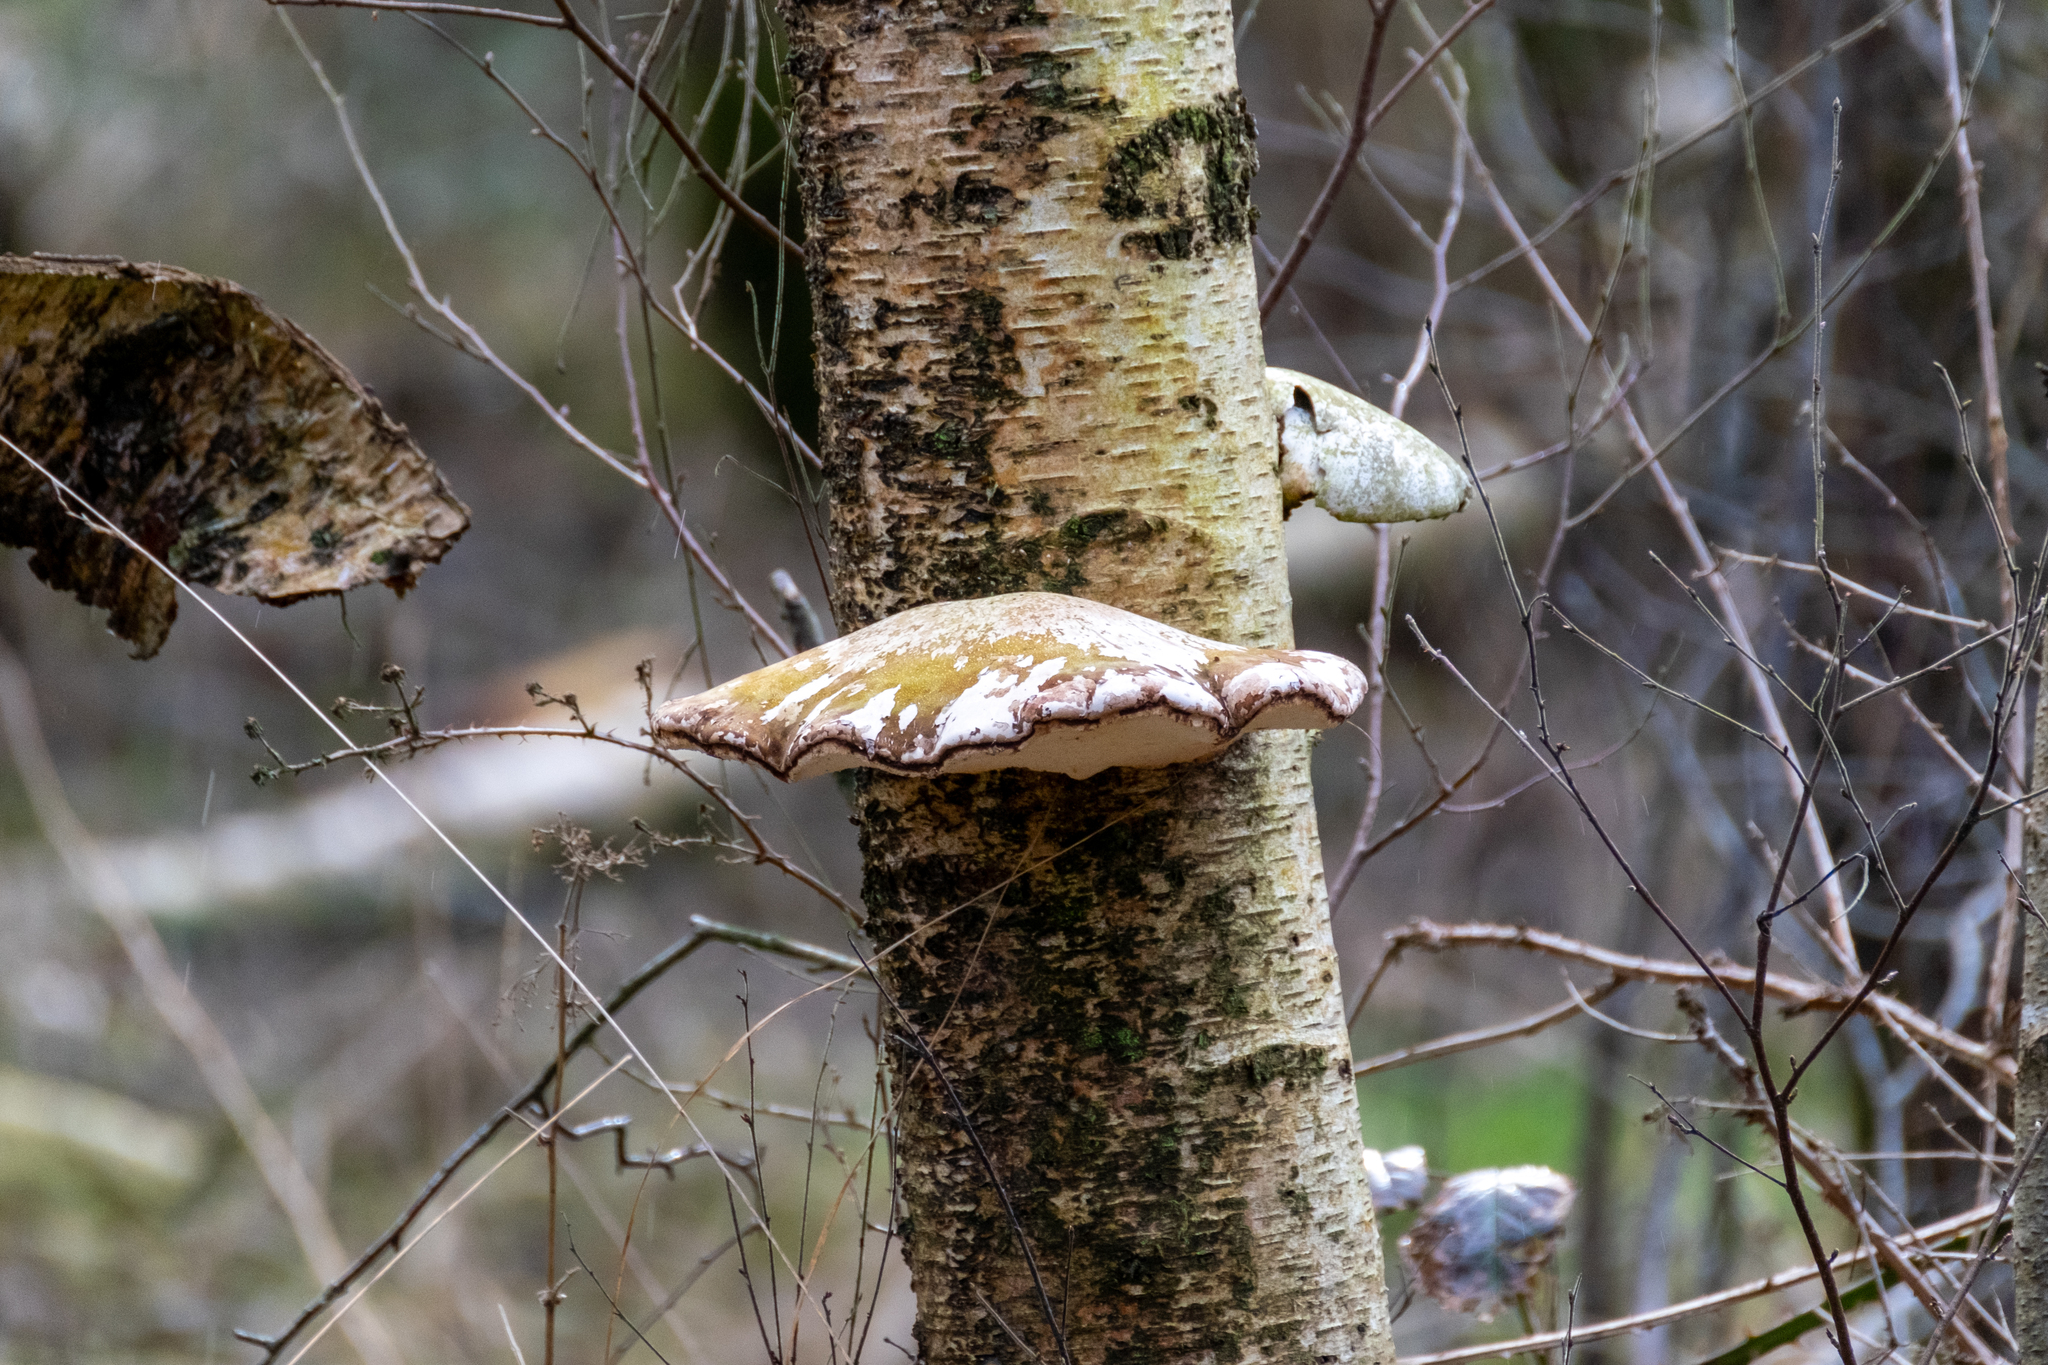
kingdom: Fungi
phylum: Basidiomycota
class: Agaricomycetes
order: Polyporales
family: Fomitopsidaceae
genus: Fomitopsis
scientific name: Fomitopsis betulina
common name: Birch polypore
